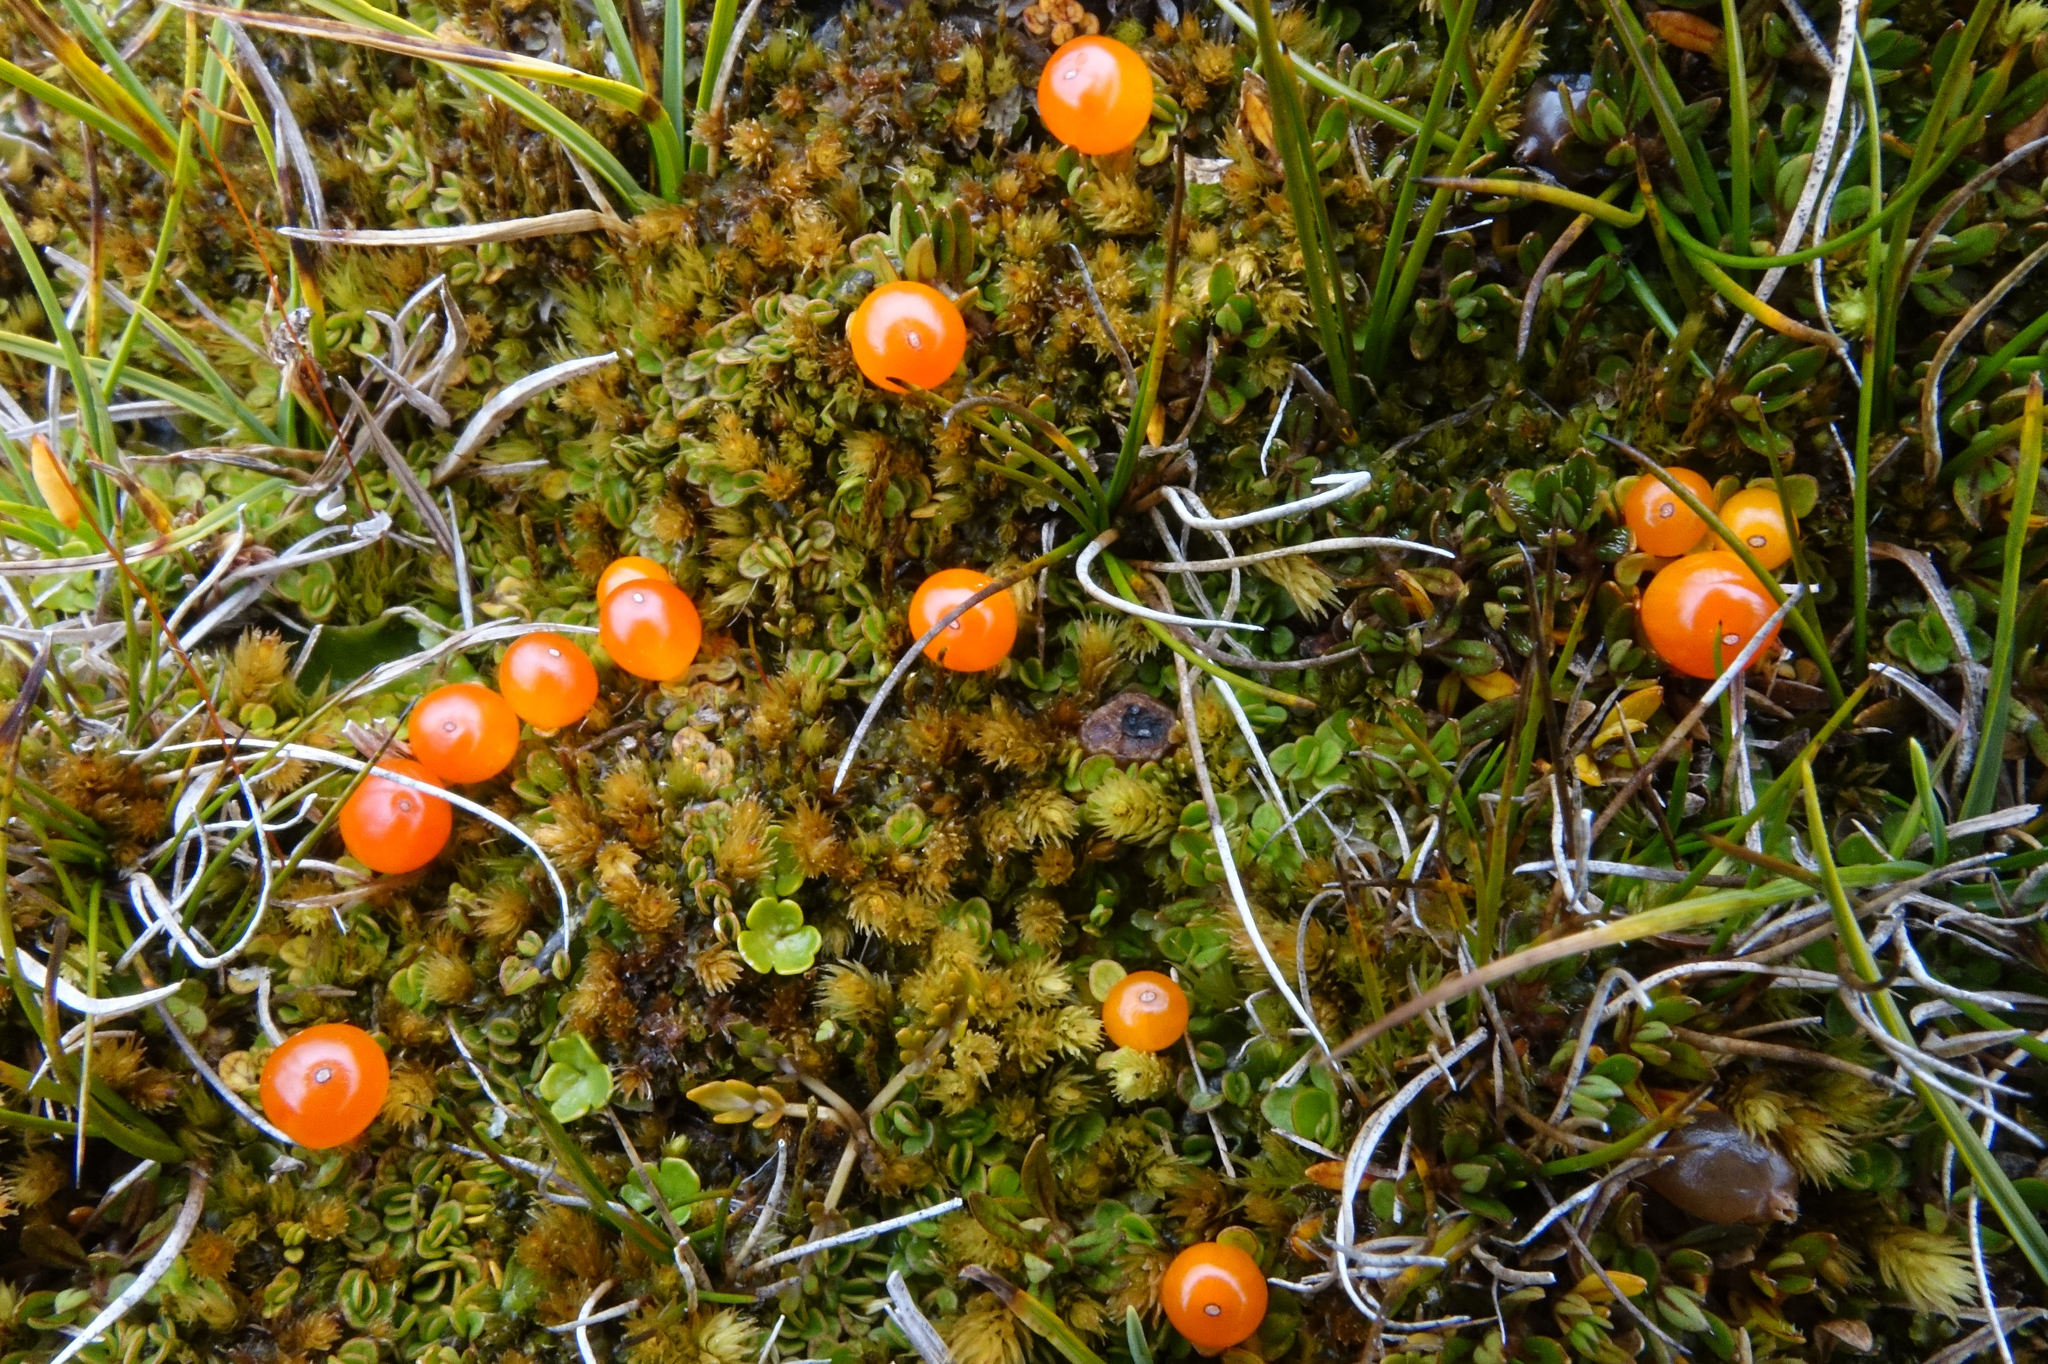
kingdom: Plantae
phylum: Tracheophyta
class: Magnoliopsida
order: Gentianales
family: Rubiaceae
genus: Nertera
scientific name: Nertera balfouriana
